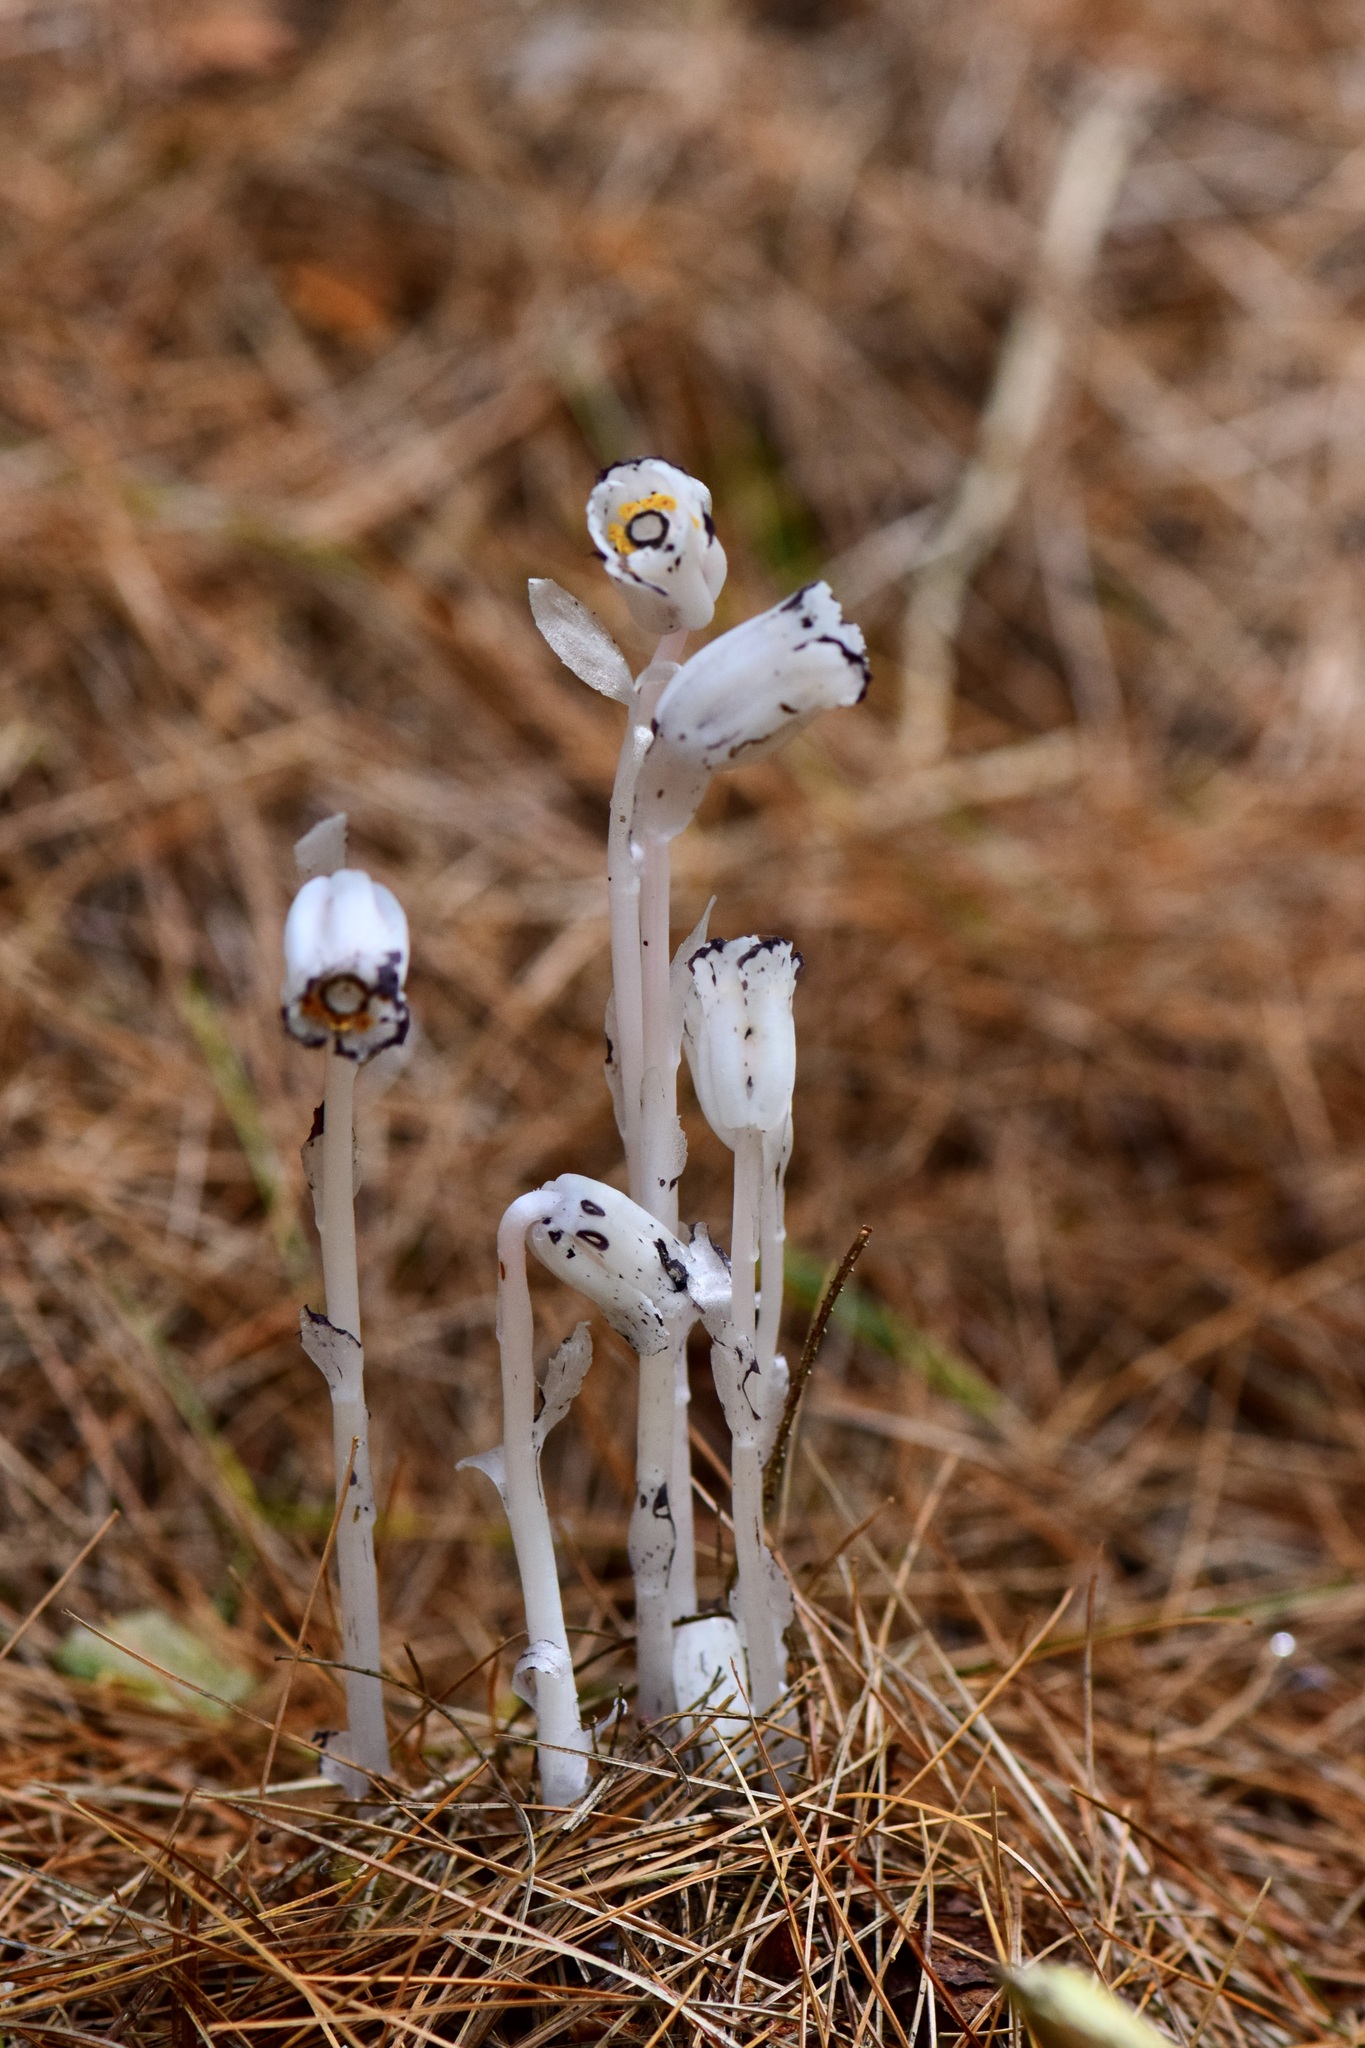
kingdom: Plantae
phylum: Tracheophyta
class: Magnoliopsida
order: Ericales
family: Ericaceae
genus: Monotropa
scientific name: Monotropa uniflora
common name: Convulsion root
